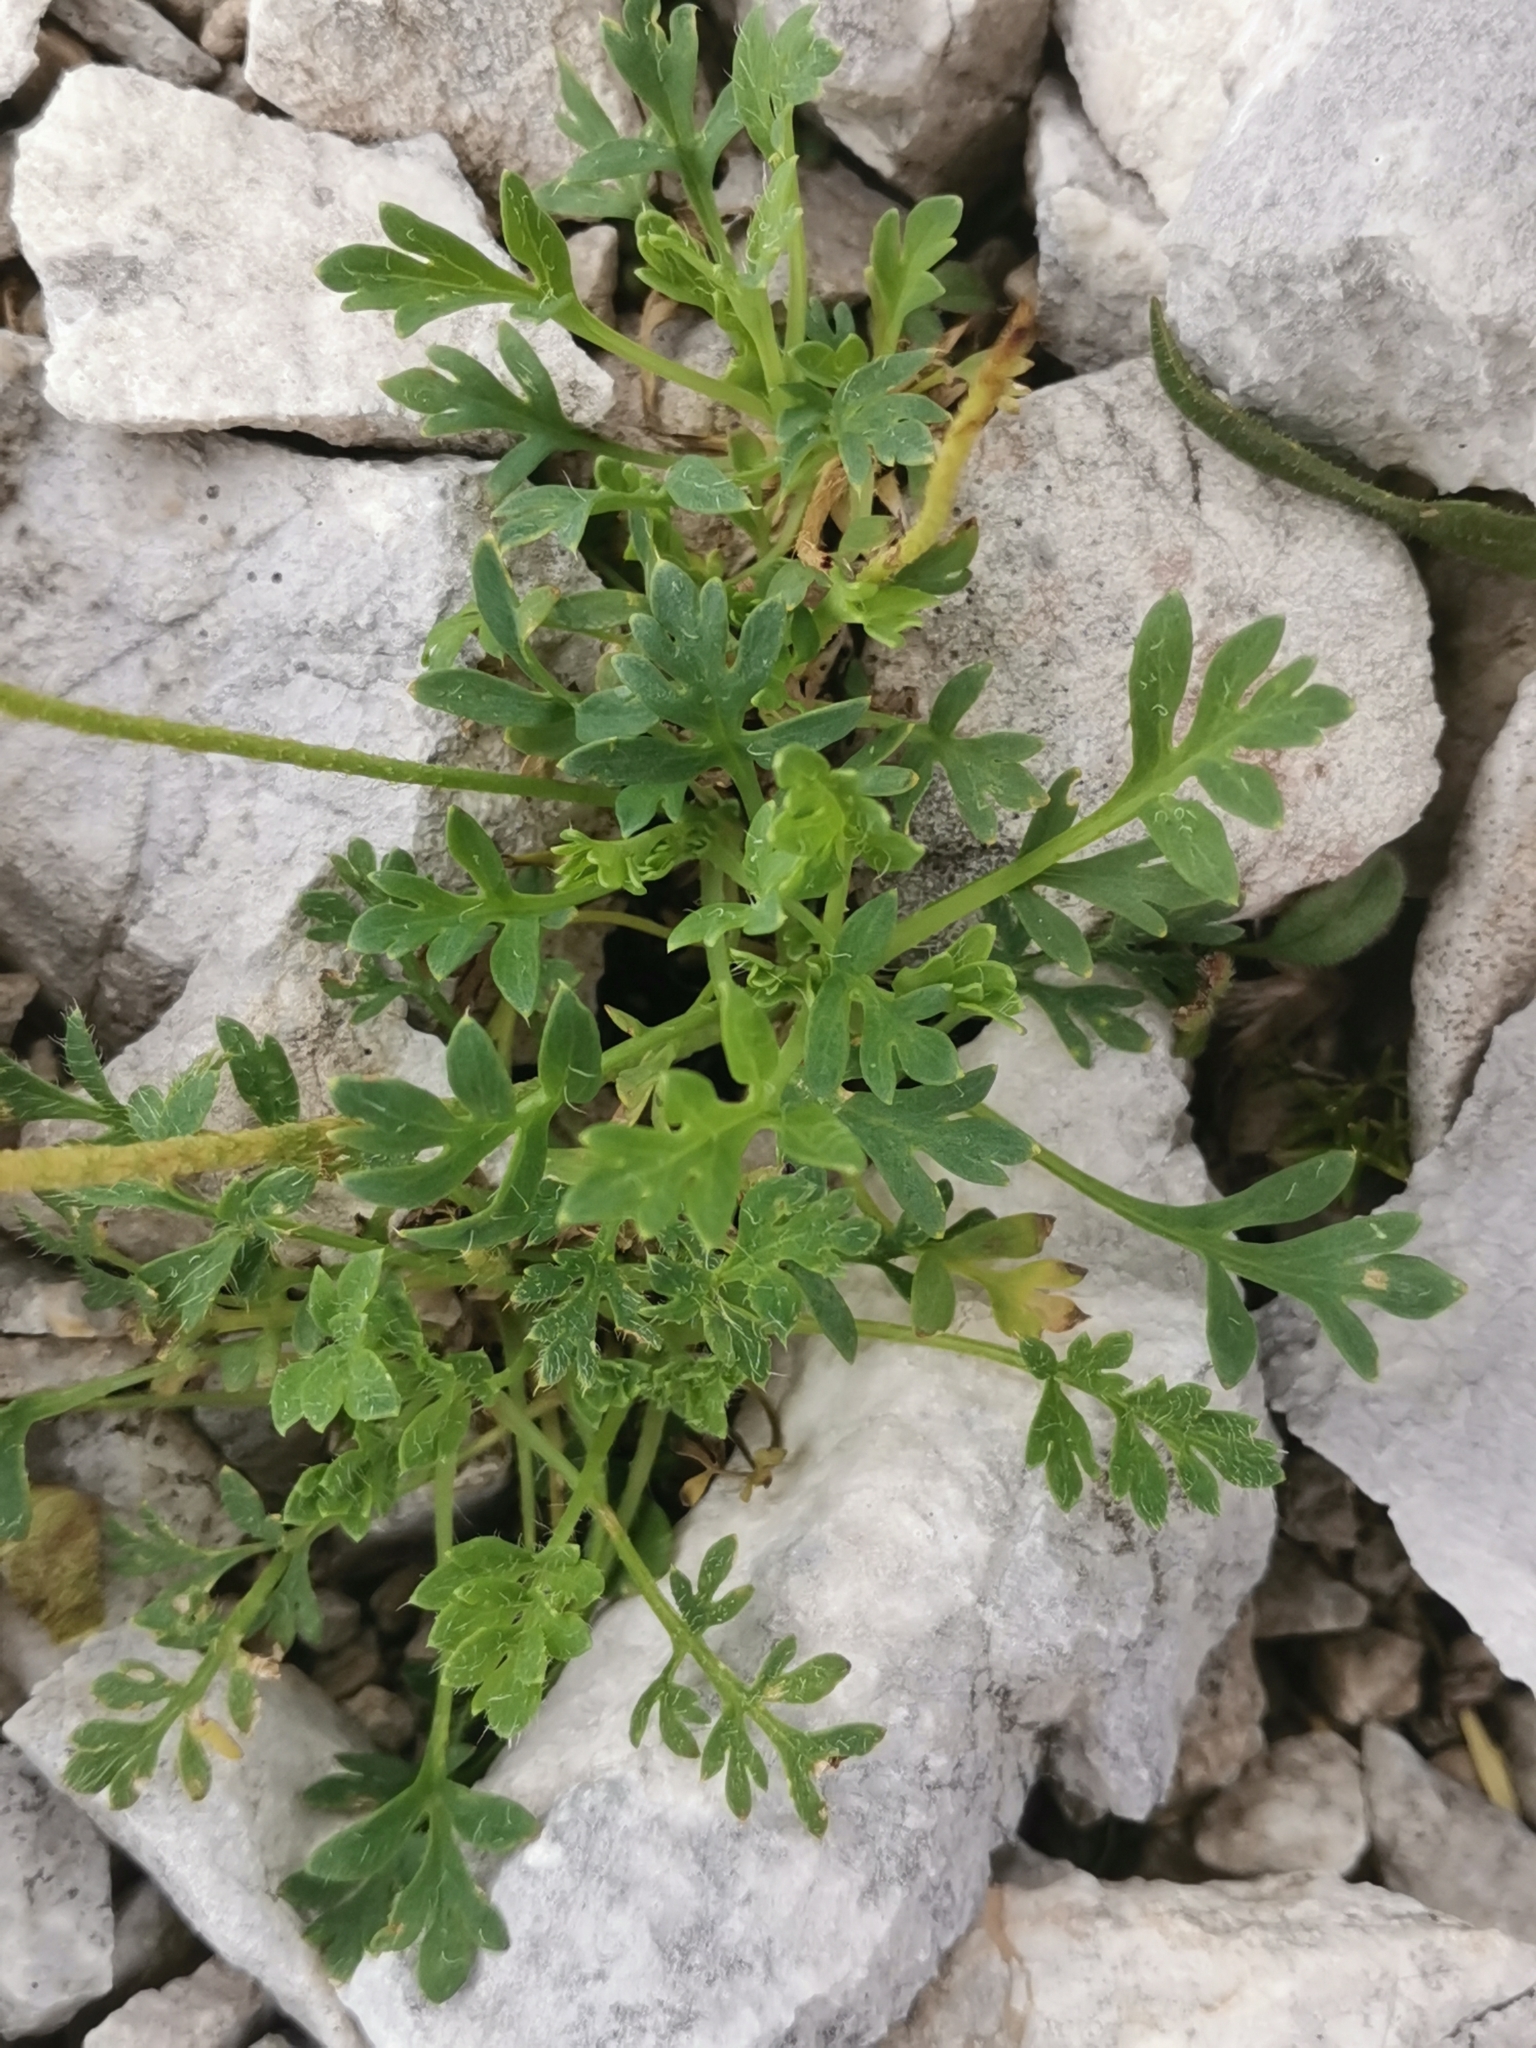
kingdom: Plantae
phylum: Tracheophyta
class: Magnoliopsida
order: Ranunculales
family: Papaveraceae
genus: Papaver
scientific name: Papaver alpinum
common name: Austrian poppy
